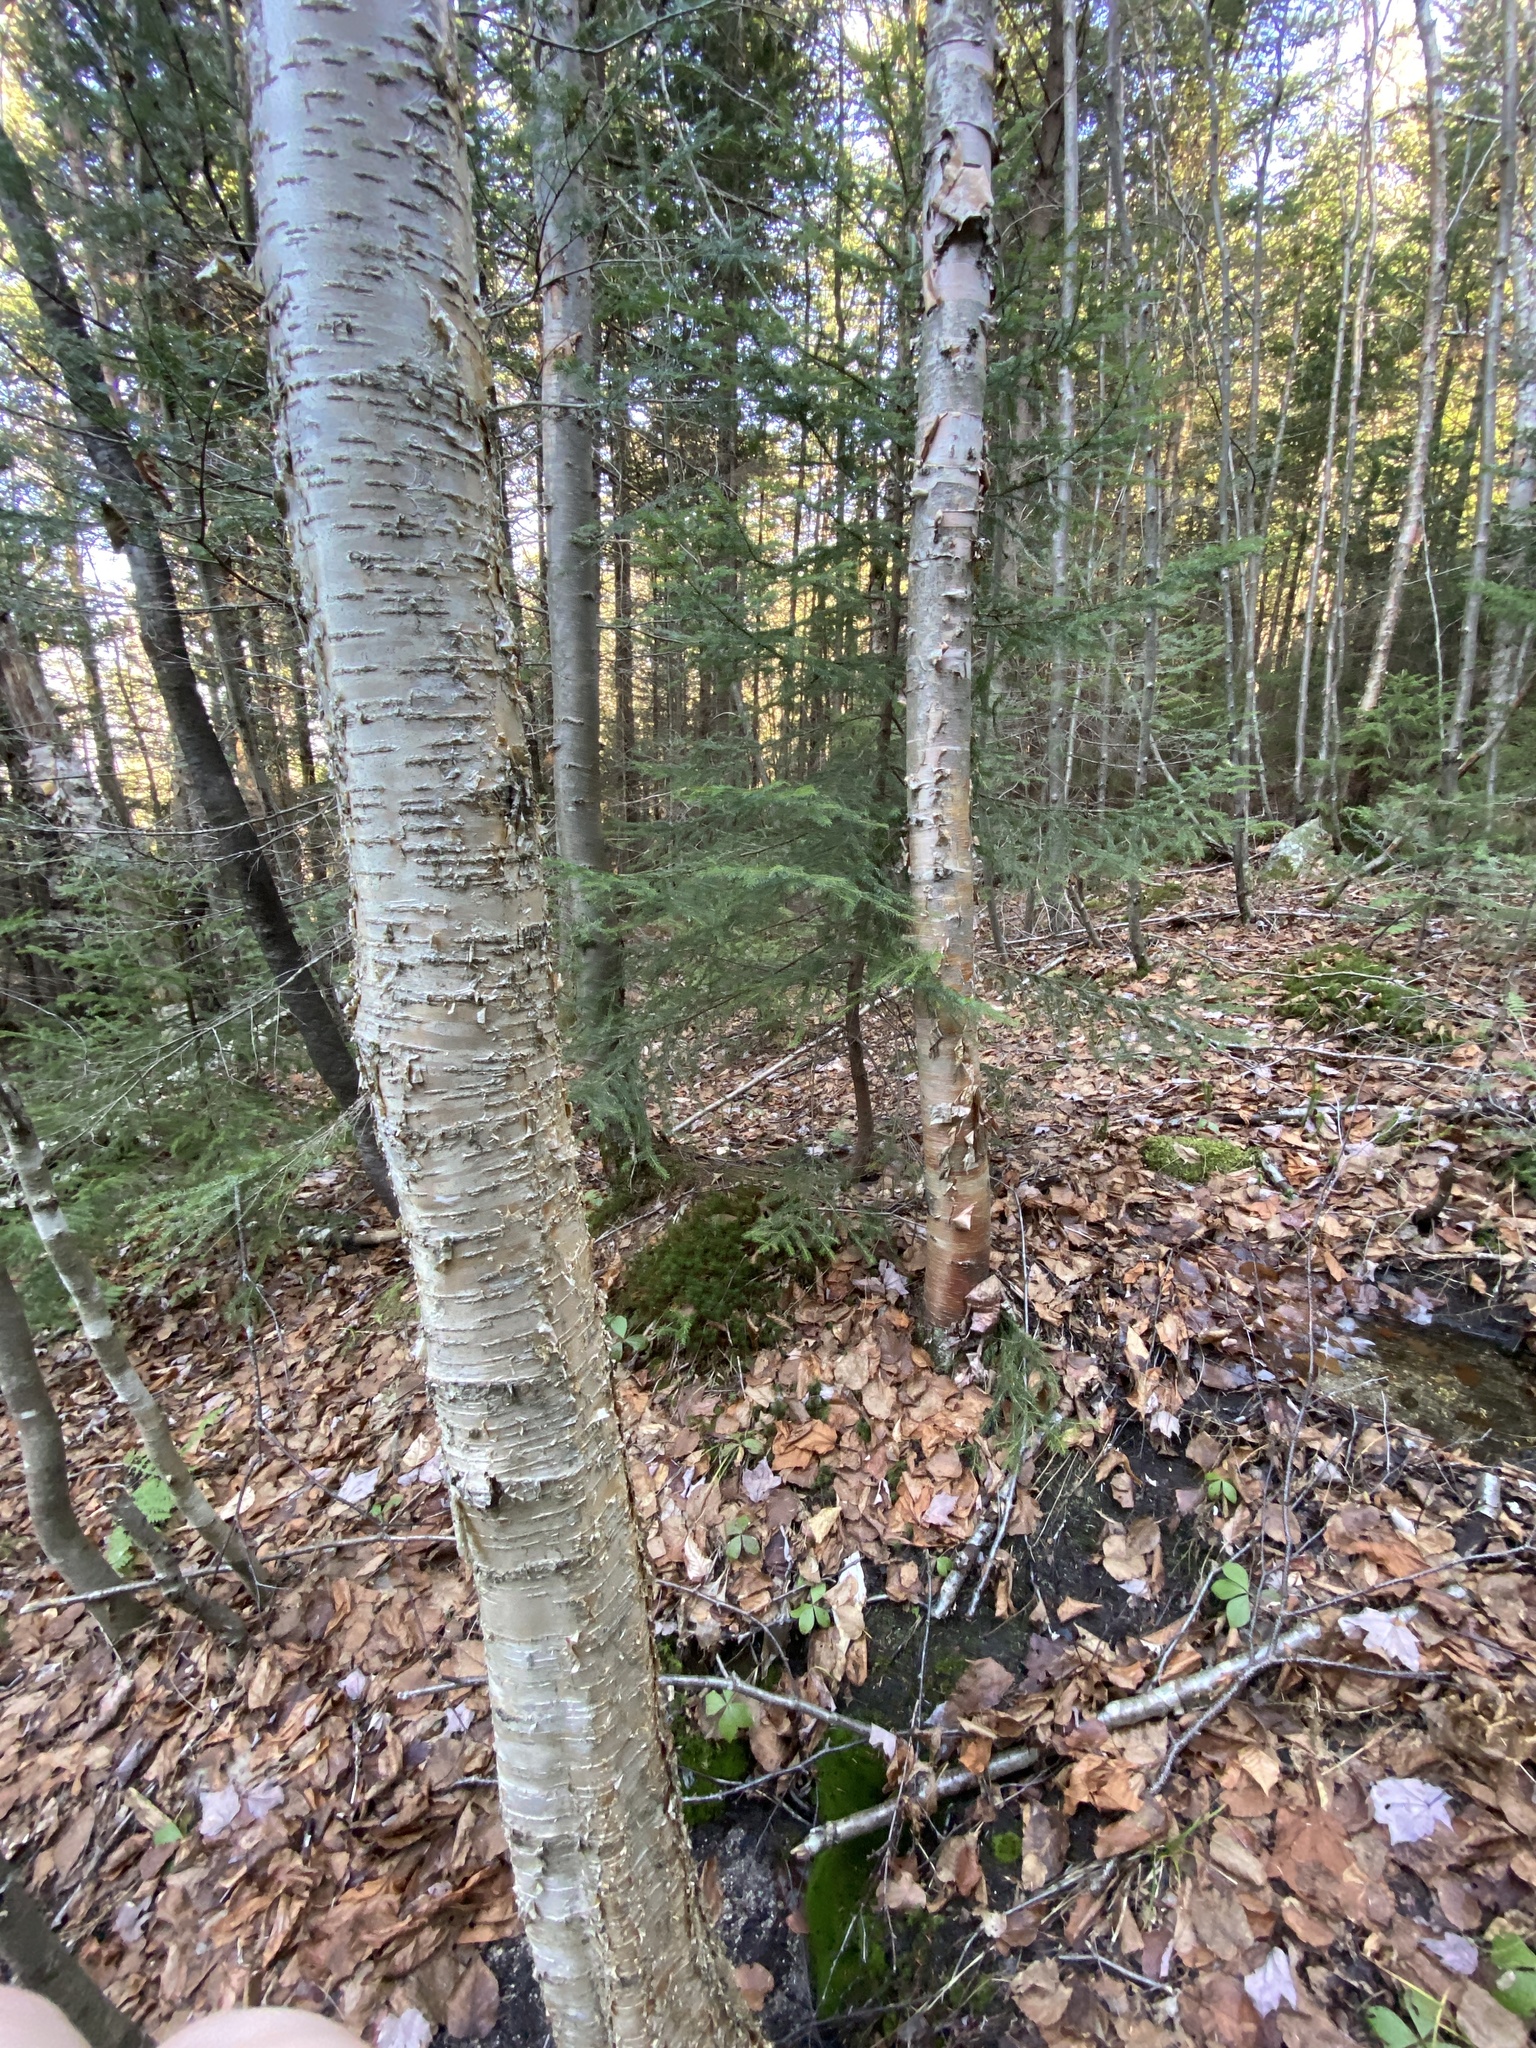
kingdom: Plantae
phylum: Tracheophyta
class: Magnoliopsida
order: Fagales
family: Betulaceae
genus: Betula
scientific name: Betula alleghaniensis
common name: Yellow birch
